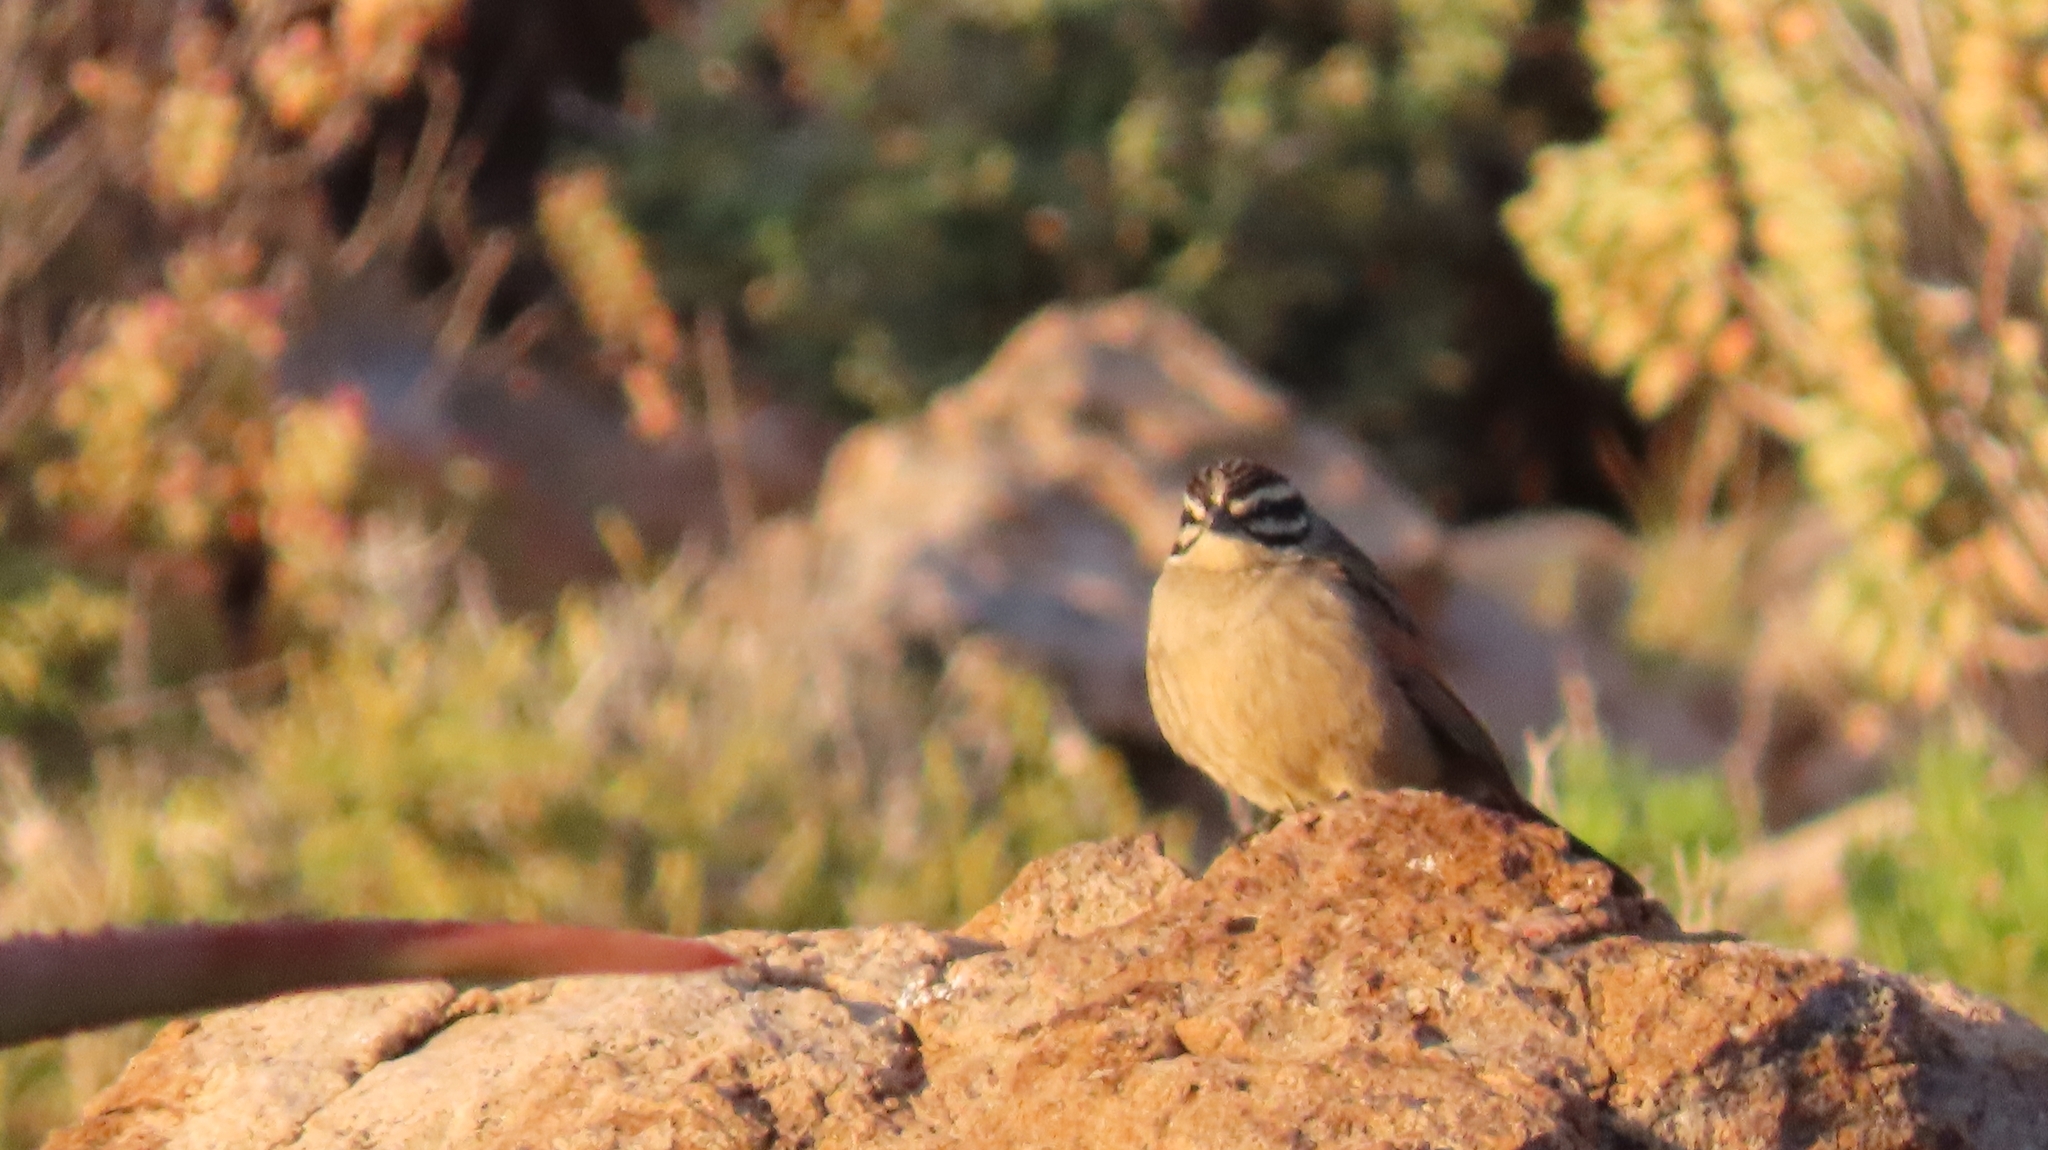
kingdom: Animalia
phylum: Chordata
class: Aves
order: Passeriformes
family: Emberizidae
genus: Emberiza
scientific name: Emberiza capensis
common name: Cape bunting
